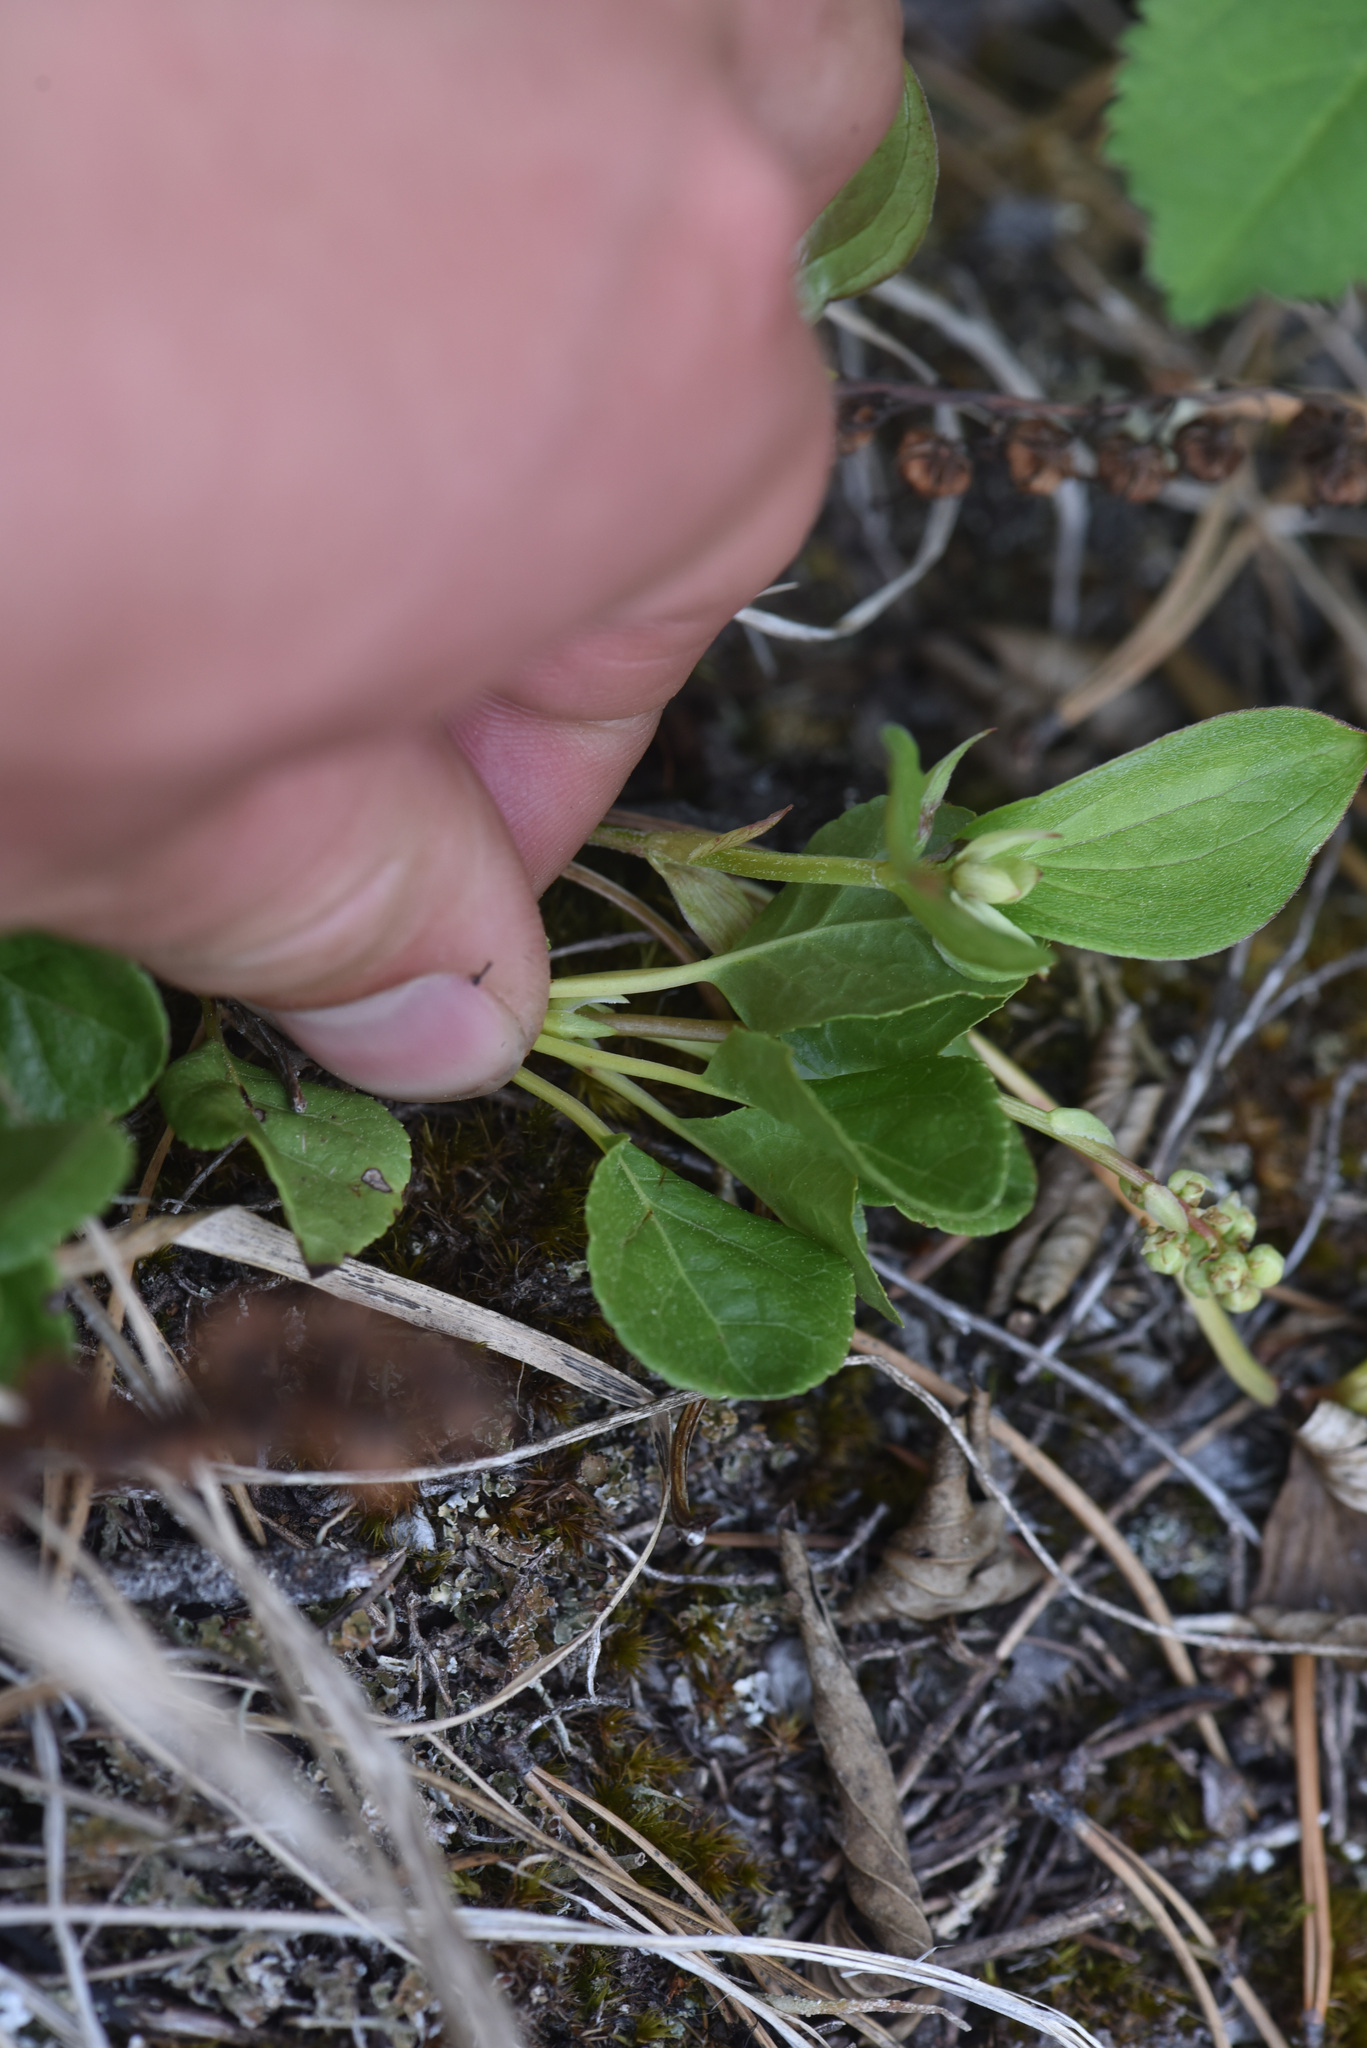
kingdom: Plantae
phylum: Tracheophyta
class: Magnoliopsida
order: Ericales
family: Ericaceae
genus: Orthilia
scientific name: Orthilia secunda
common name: One-sided orthilia
